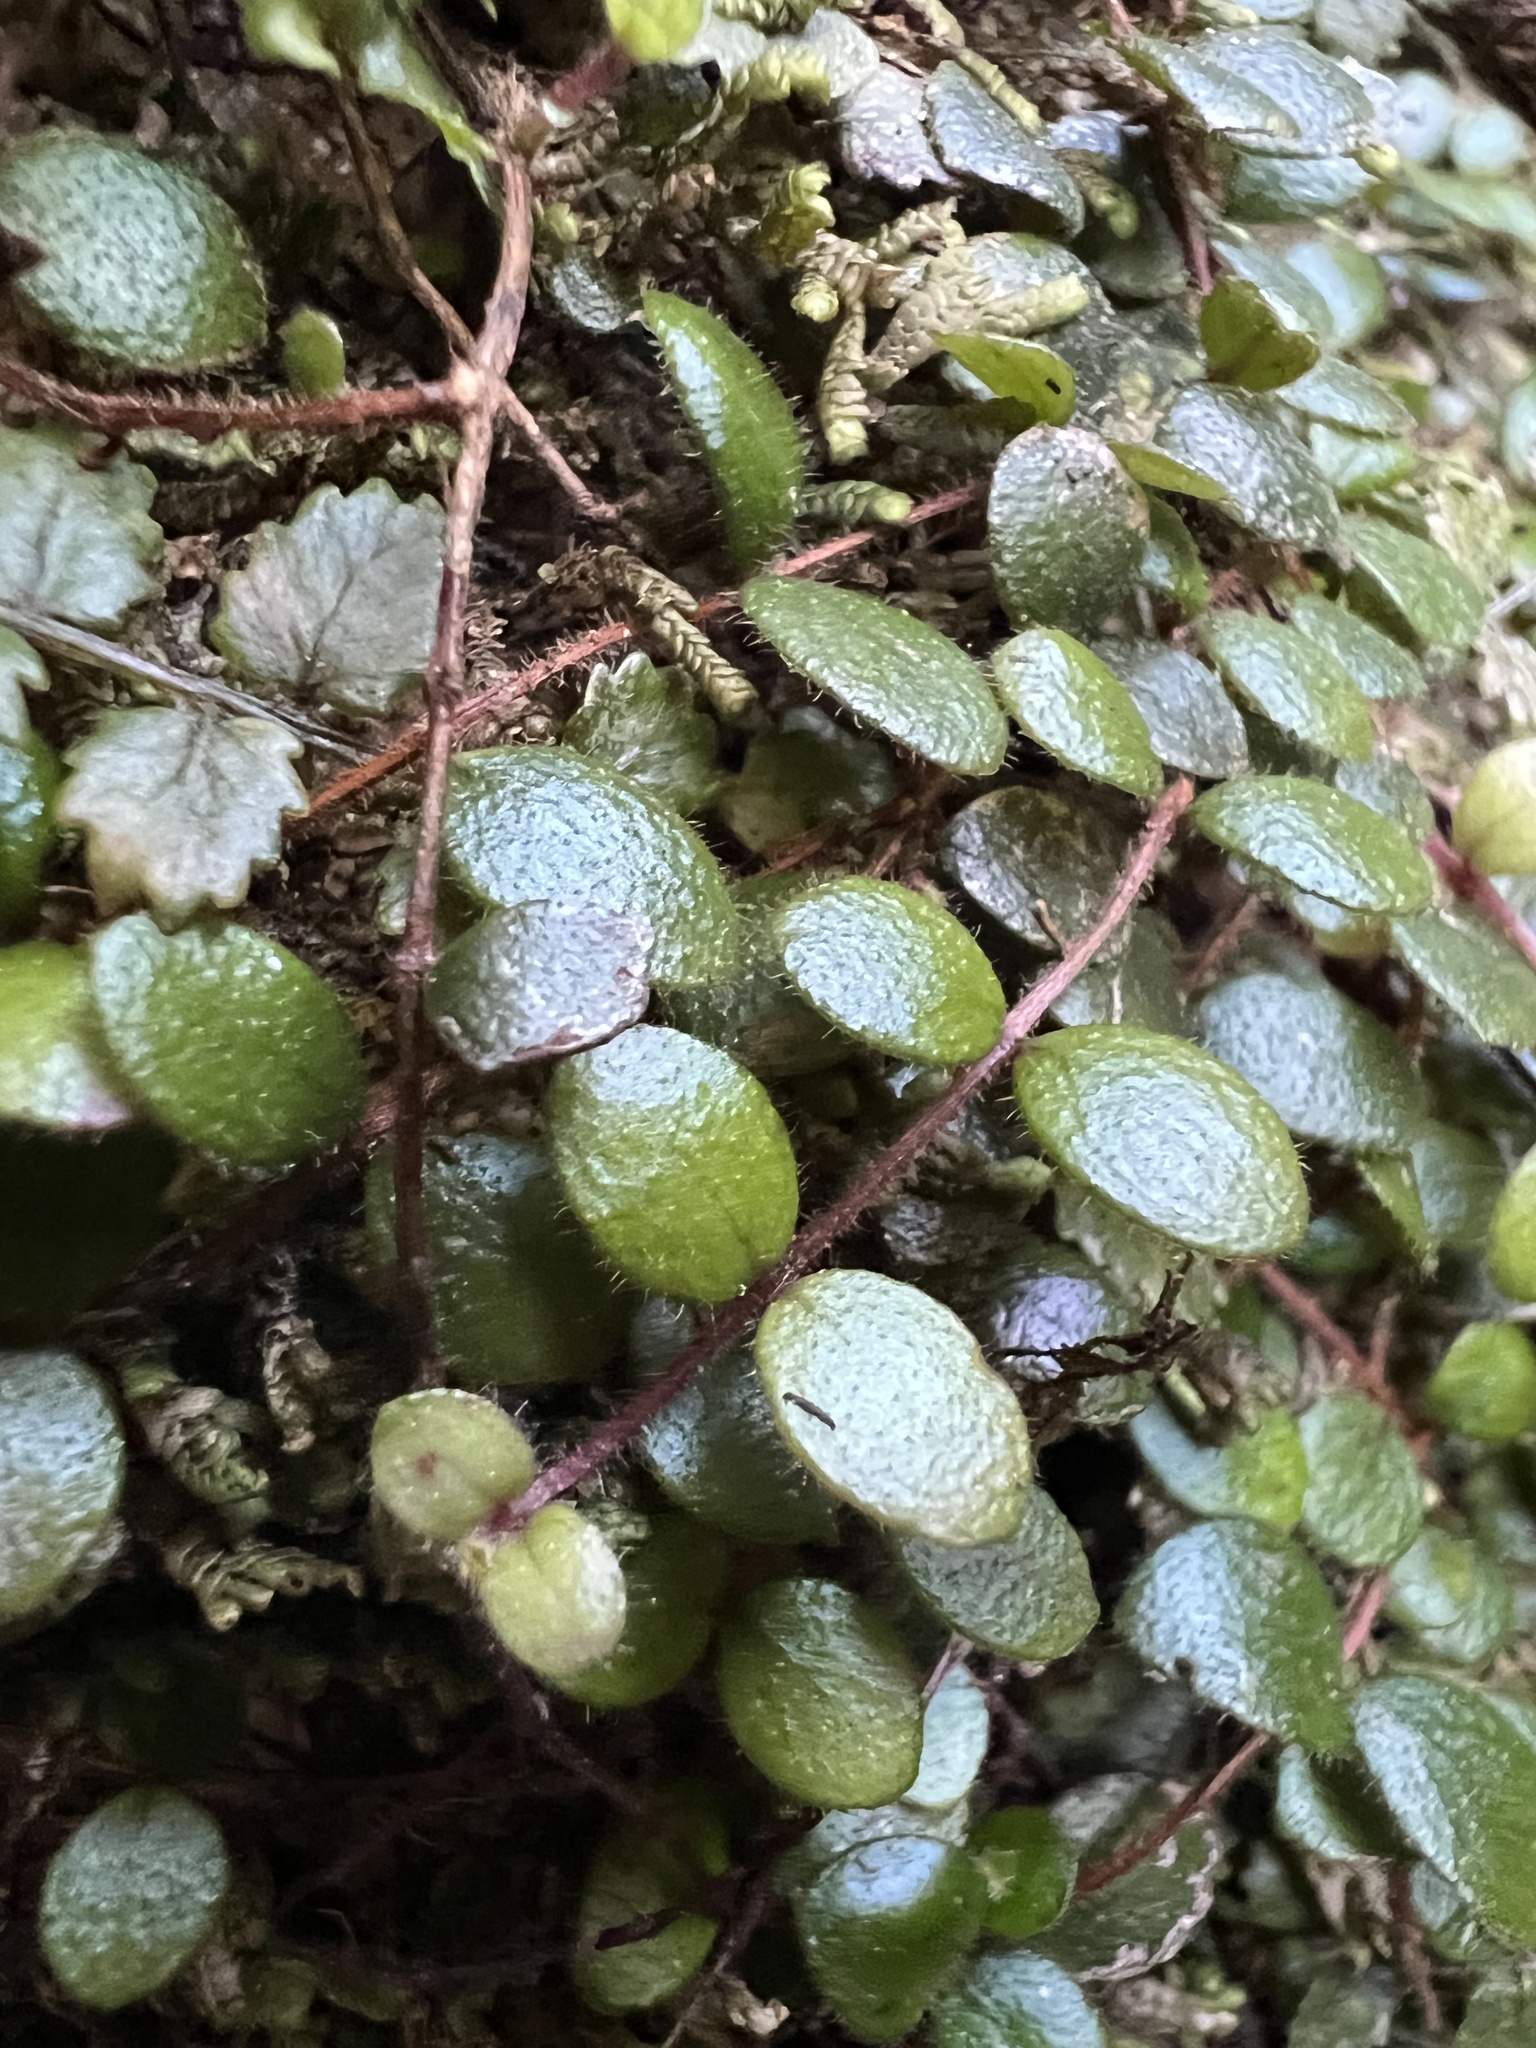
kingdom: Plantae
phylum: Tracheophyta
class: Magnoliopsida
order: Myrtales
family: Myrtaceae
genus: Metrosideros
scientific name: Metrosideros carminea
